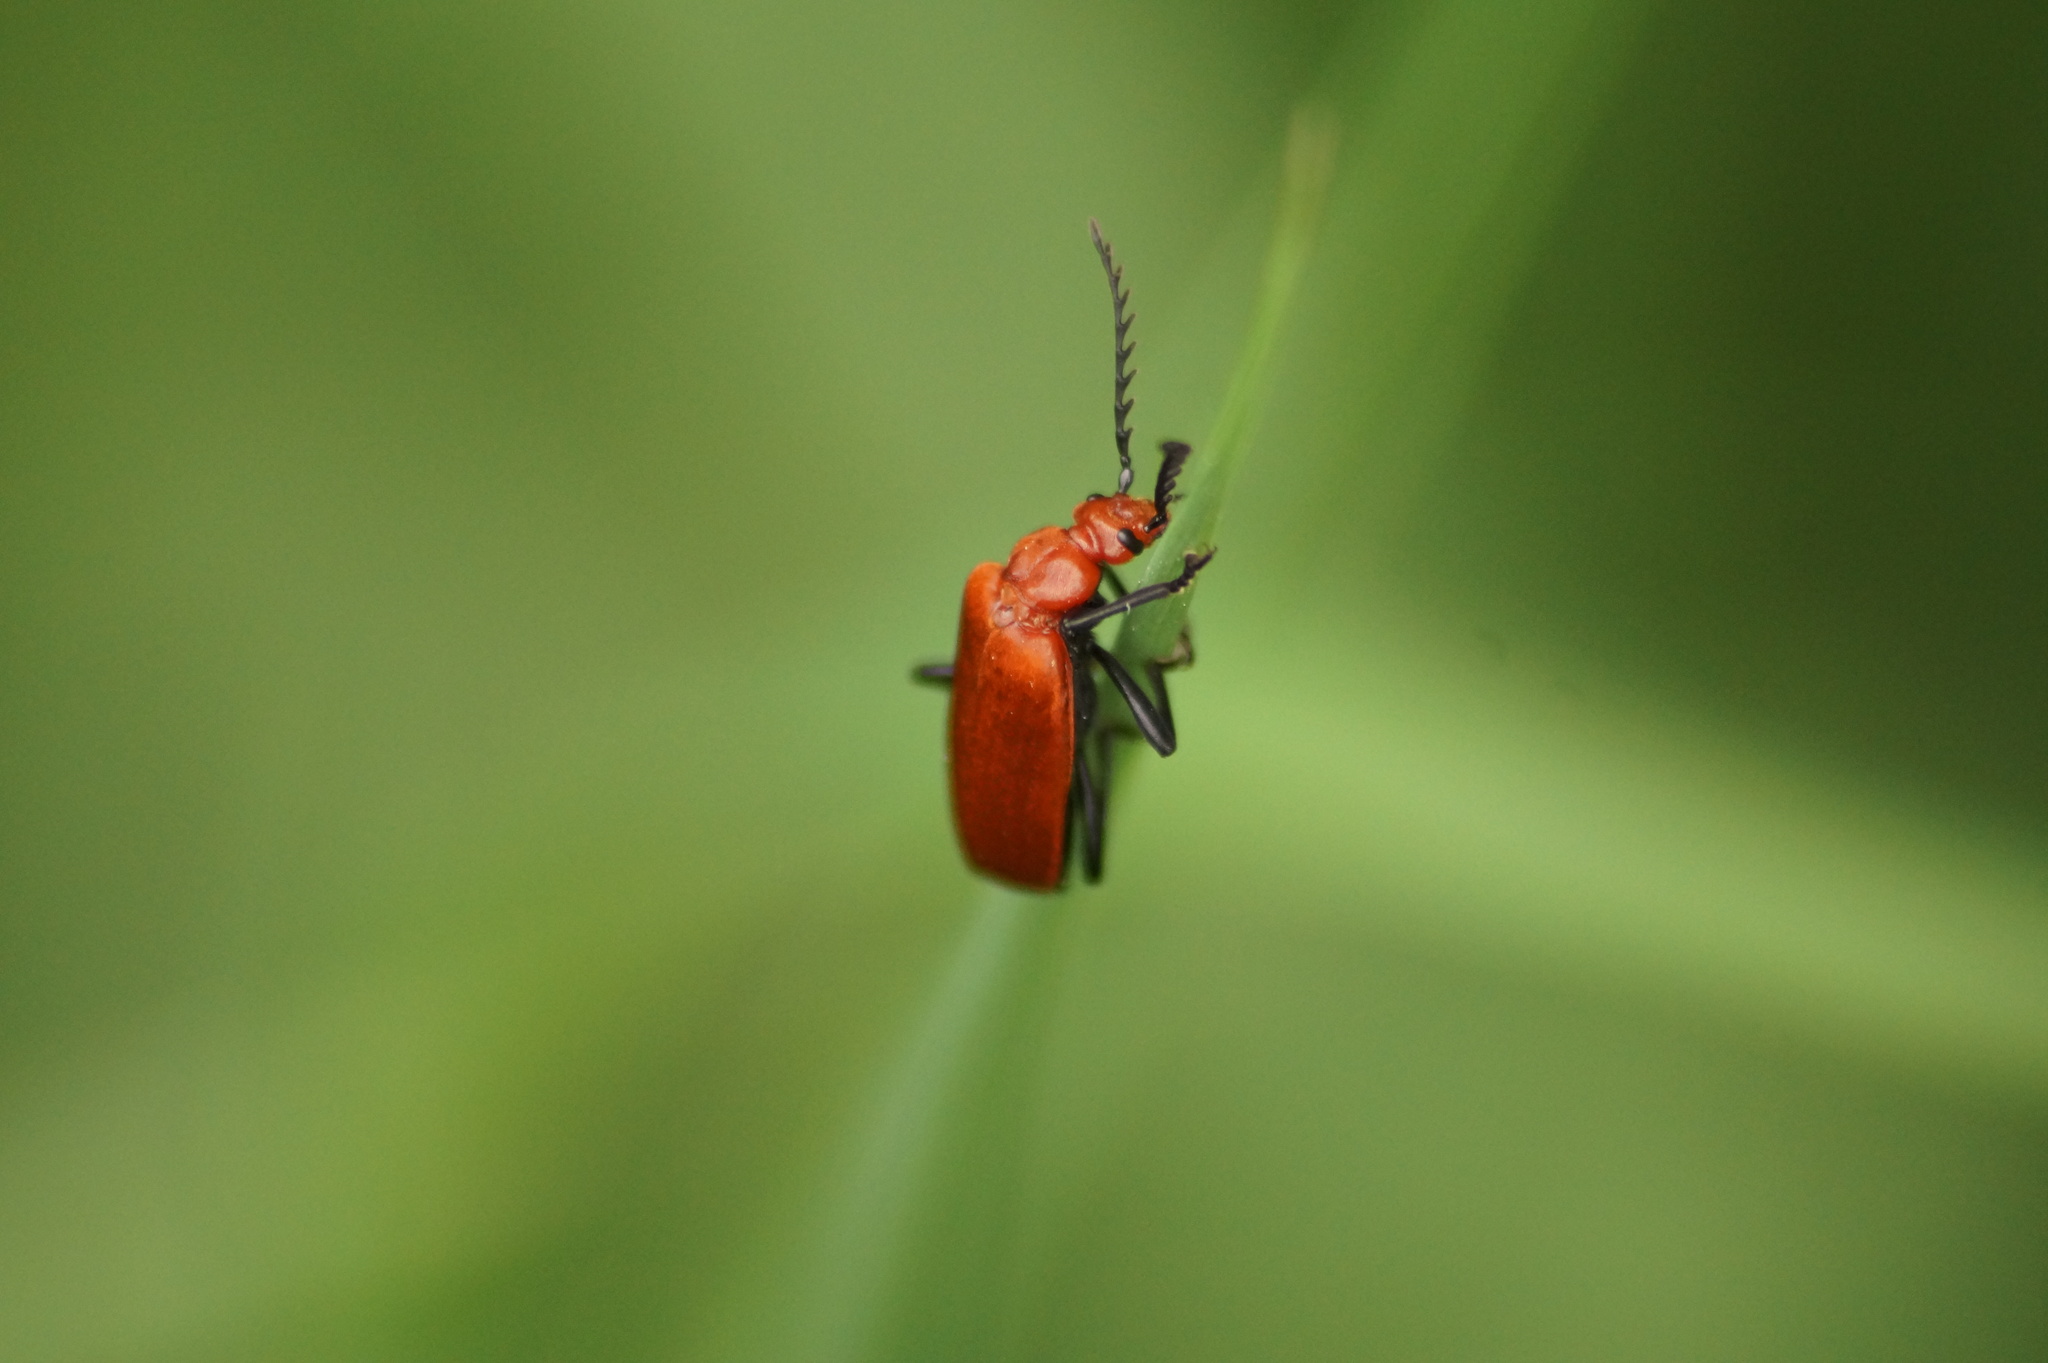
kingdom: Animalia
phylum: Arthropoda
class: Insecta
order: Coleoptera
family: Pyrochroidae
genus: Pyrochroa
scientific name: Pyrochroa serraticornis
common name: Red-headed cardinal beetle
